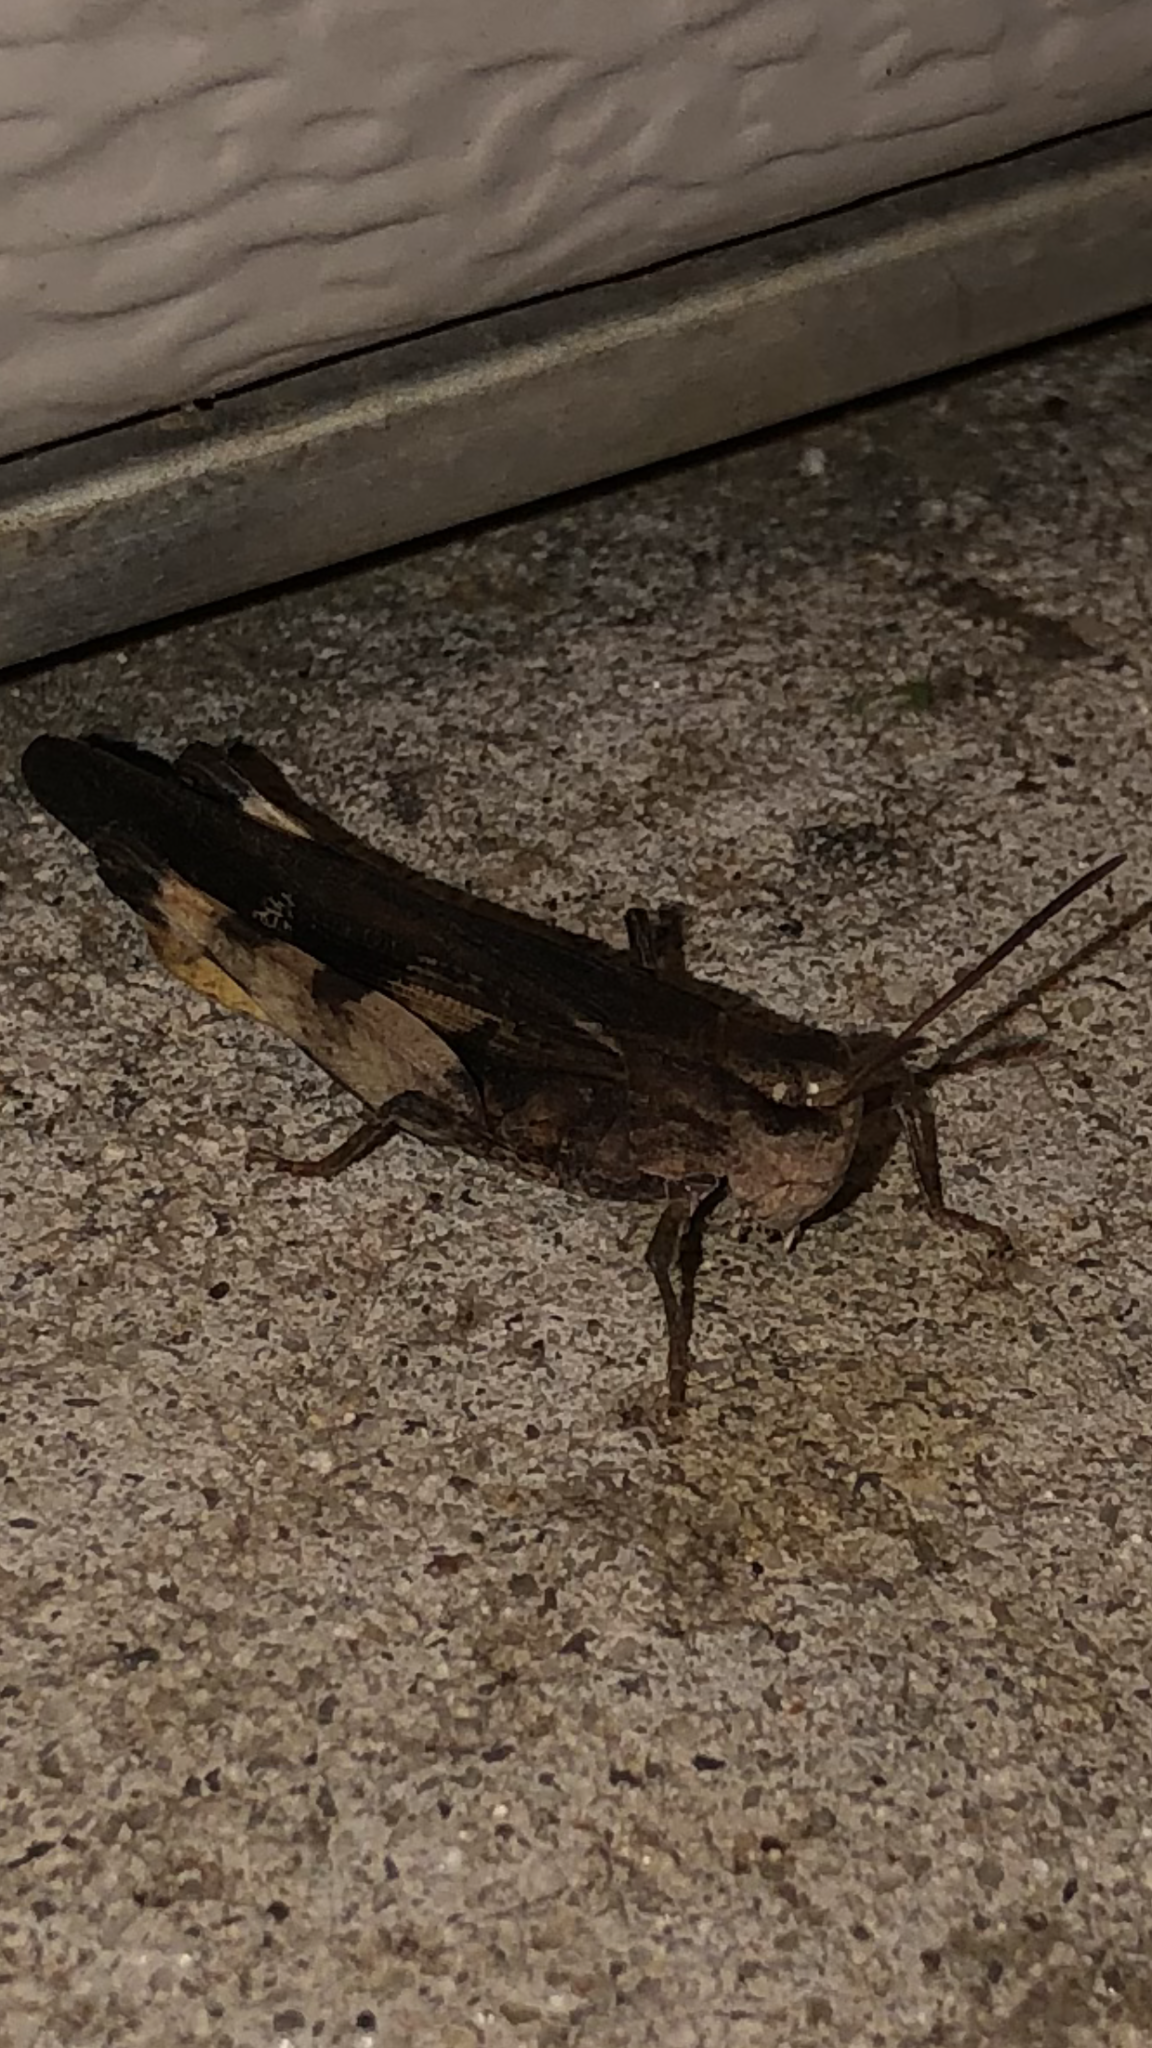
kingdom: Animalia
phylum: Arthropoda
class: Insecta
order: Orthoptera
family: Acrididae
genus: Chortophaga
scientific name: Chortophaga viridifasciata
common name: Green-striped grasshopper
